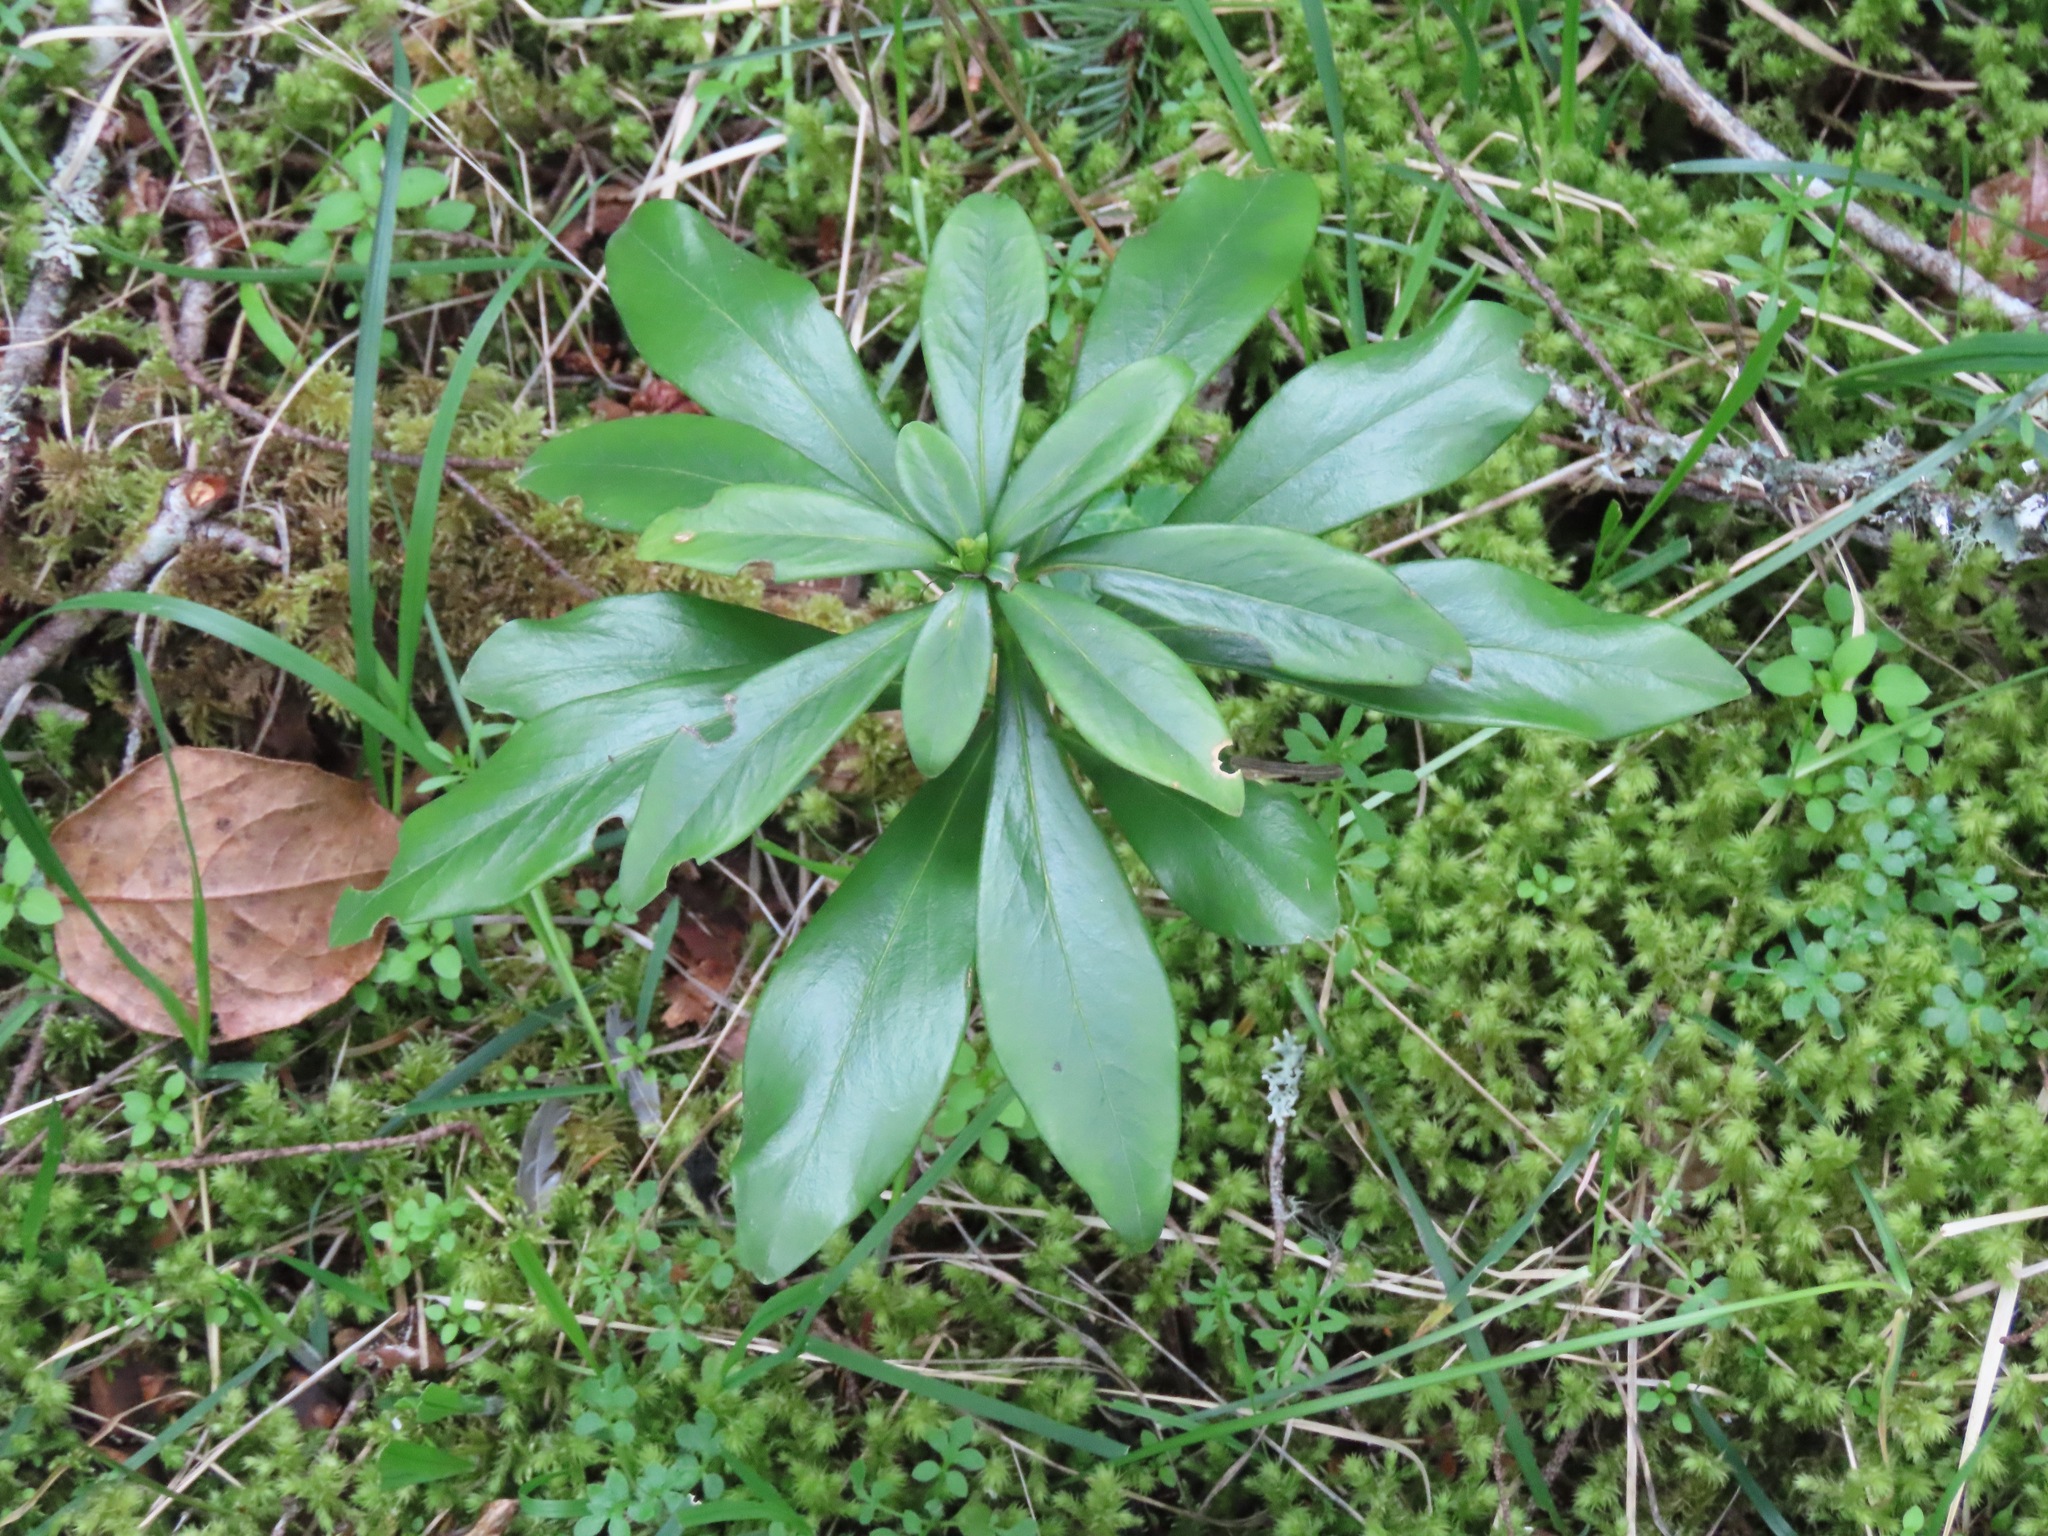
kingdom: Plantae
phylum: Tracheophyta
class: Magnoliopsida
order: Malvales
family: Thymelaeaceae
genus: Daphne
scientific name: Daphne laureola
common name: Spurge-laurel
